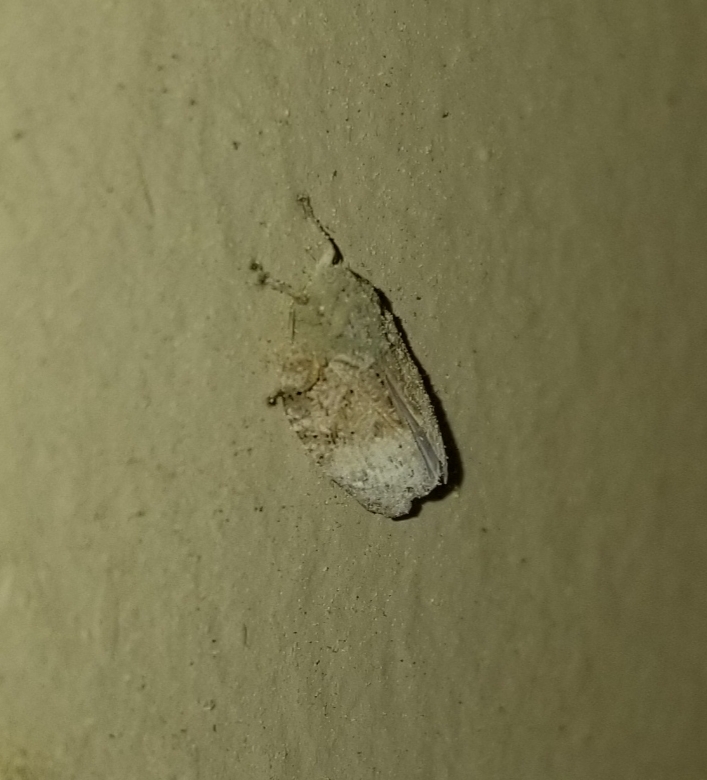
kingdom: Animalia
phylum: Arthropoda
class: Insecta
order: Hemiptera
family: Flatidae
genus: Flatoidinus
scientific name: Flatoidinus punctatus
